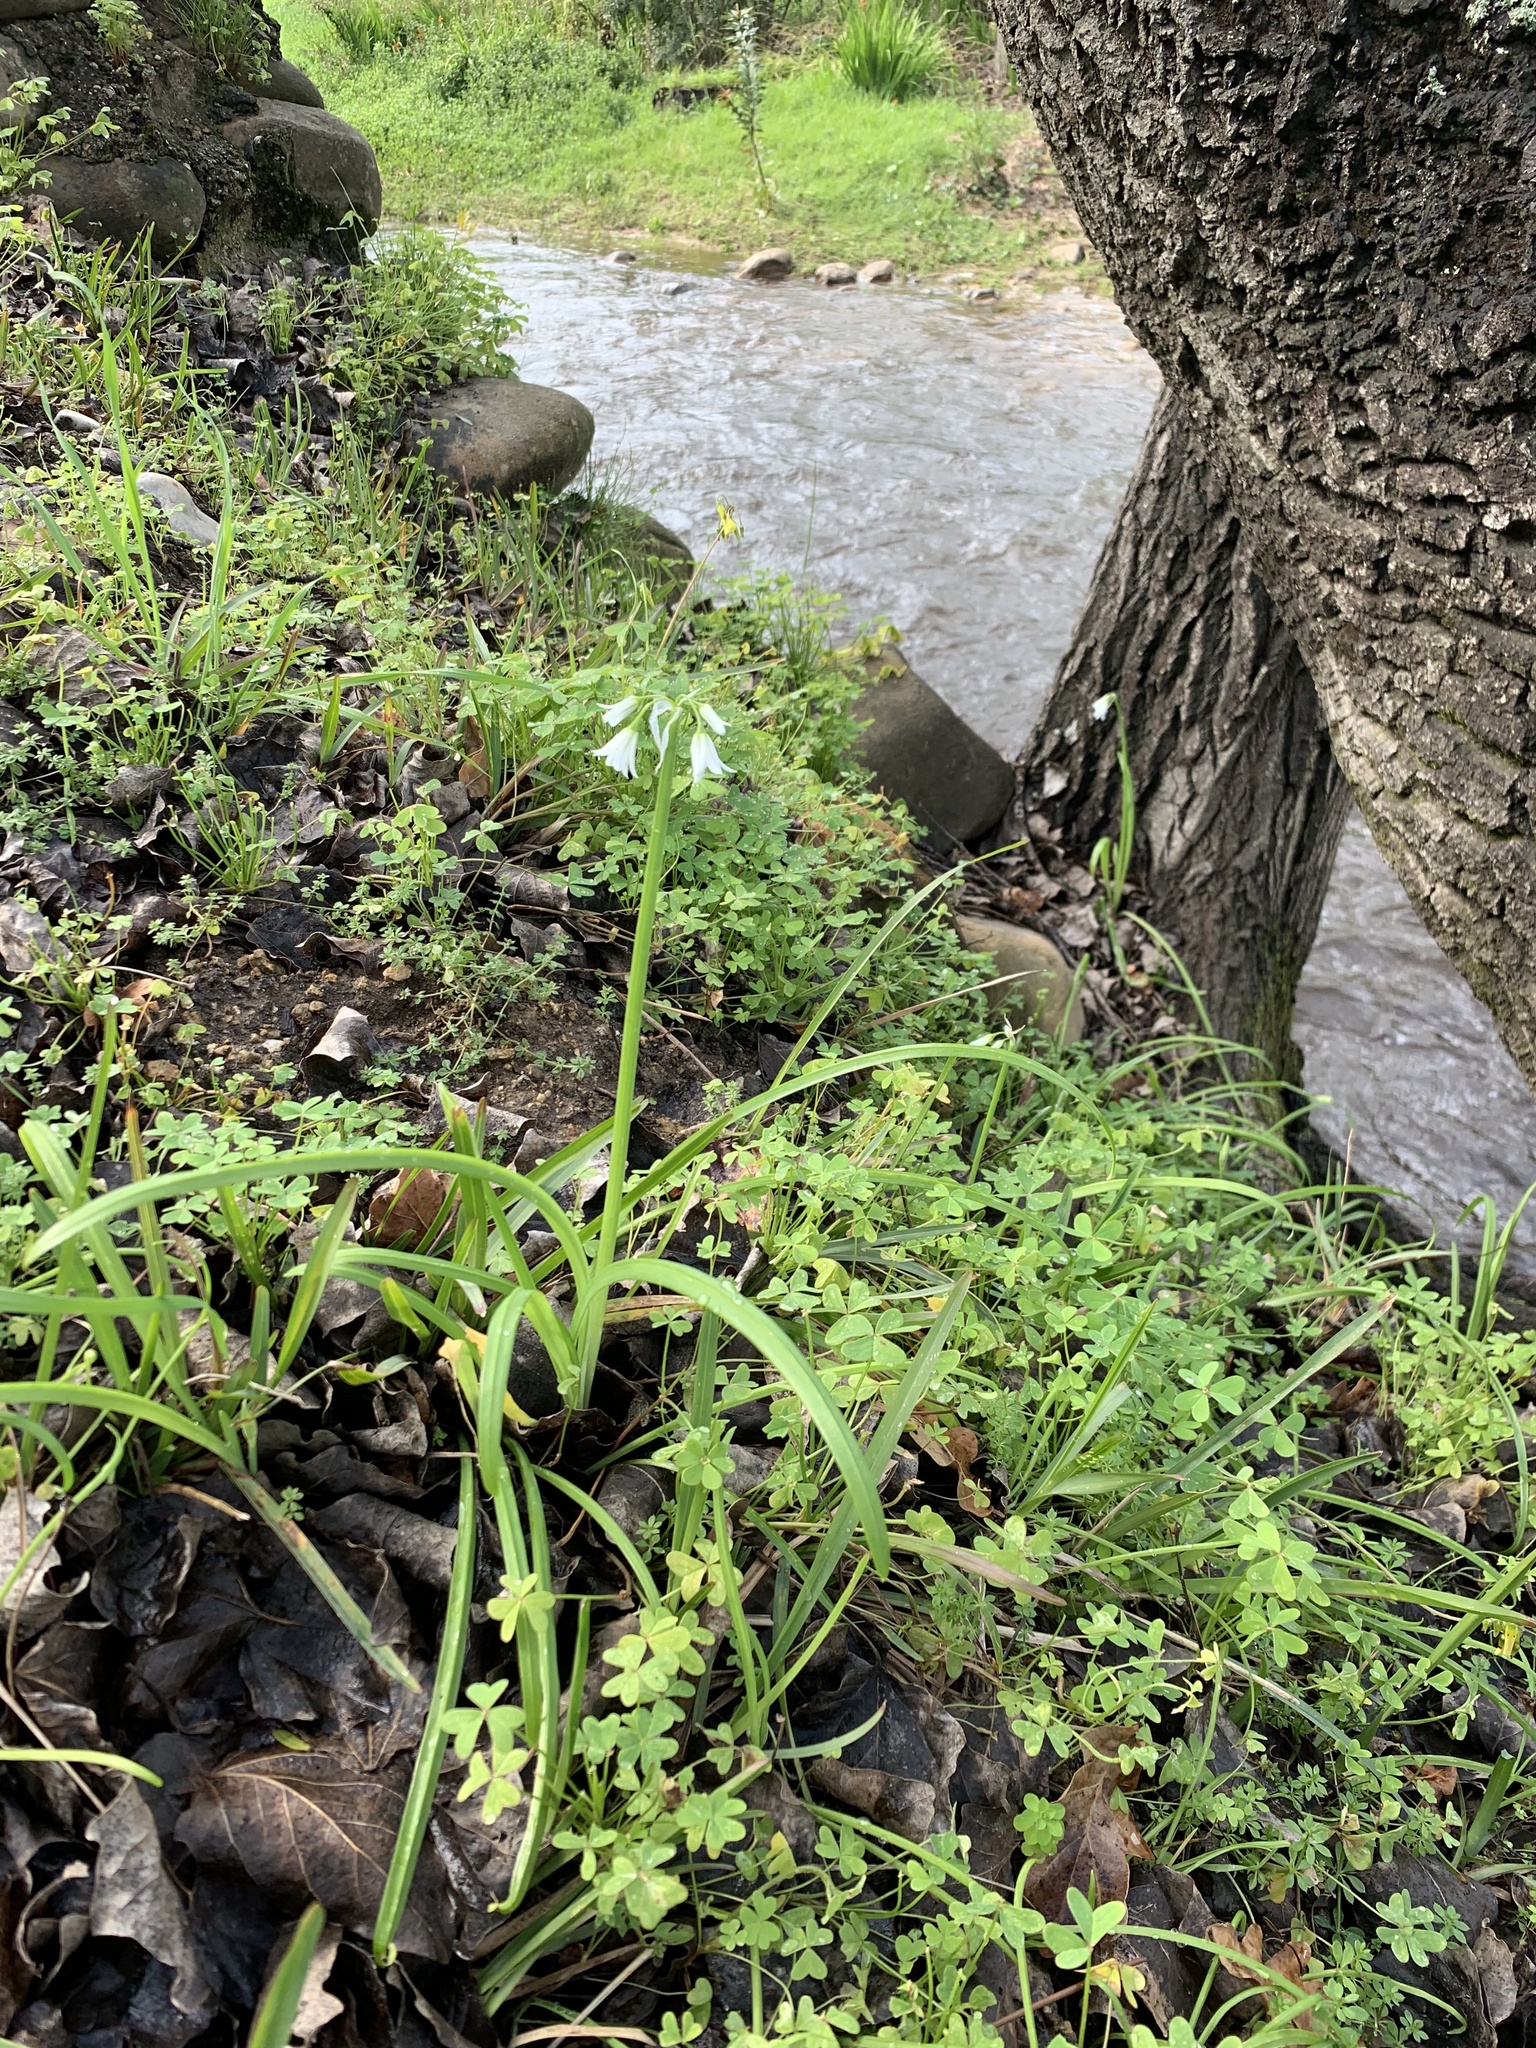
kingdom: Plantae
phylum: Tracheophyta
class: Liliopsida
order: Asparagales
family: Amaryllidaceae
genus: Allium
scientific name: Allium triquetrum
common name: Three-cornered garlic
